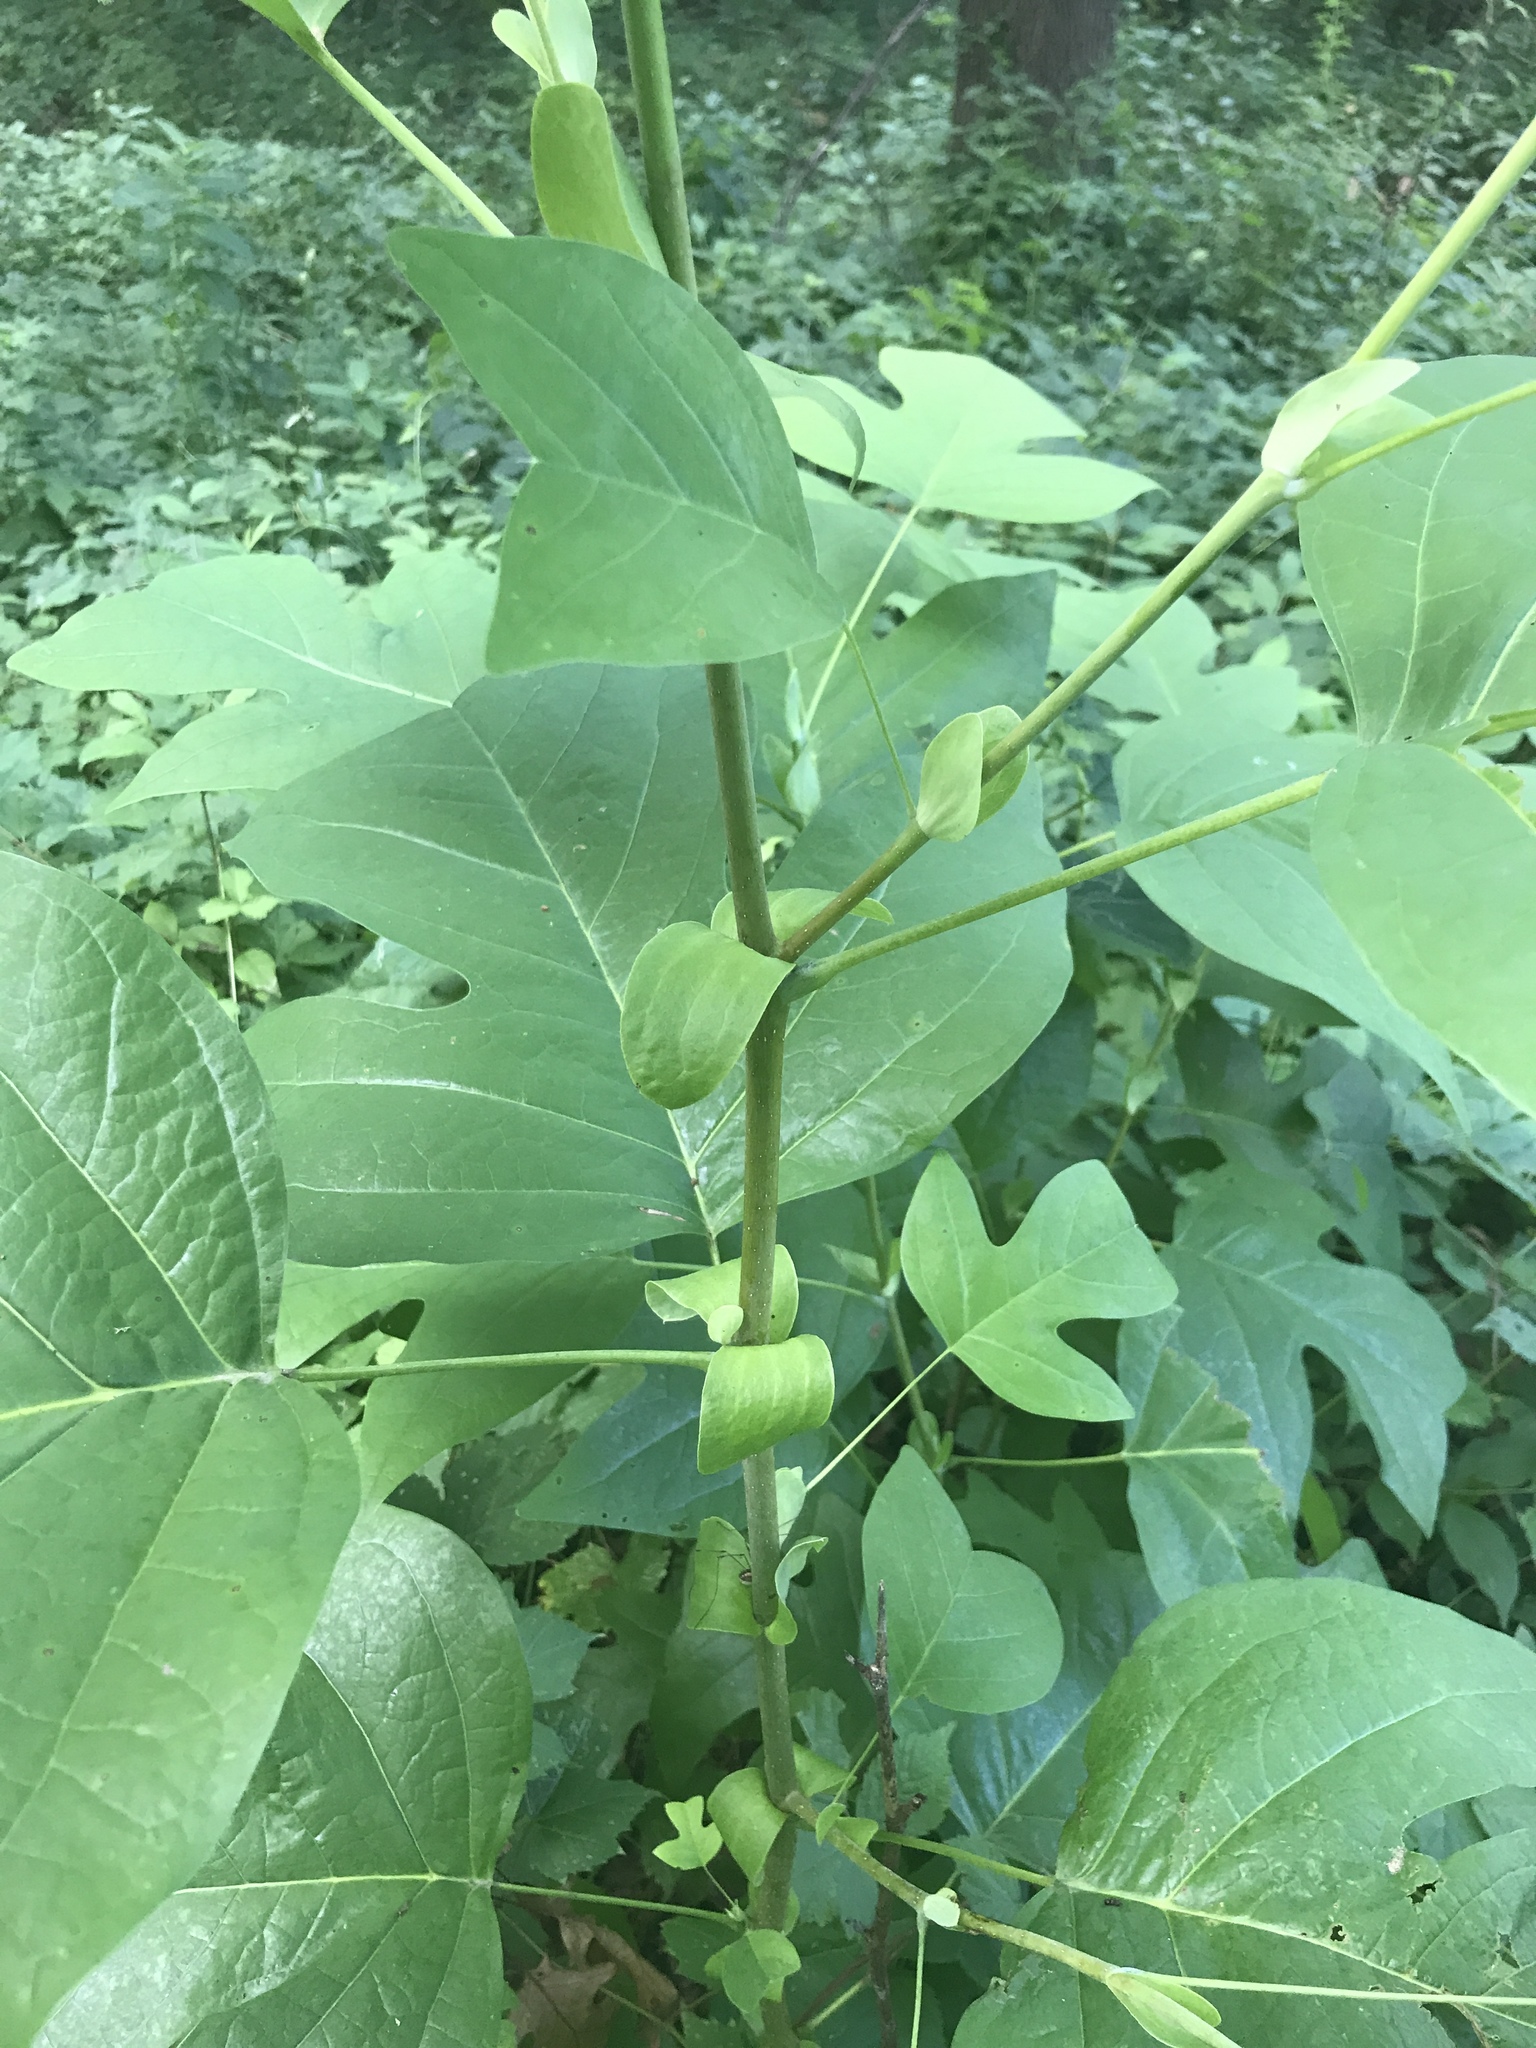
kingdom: Plantae
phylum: Tracheophyta
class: Magnoliopsida
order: Magnoliales
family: Magnoliaceae
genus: Liriodendron
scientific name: Liriodendron tulipifera
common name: Tulip tree
